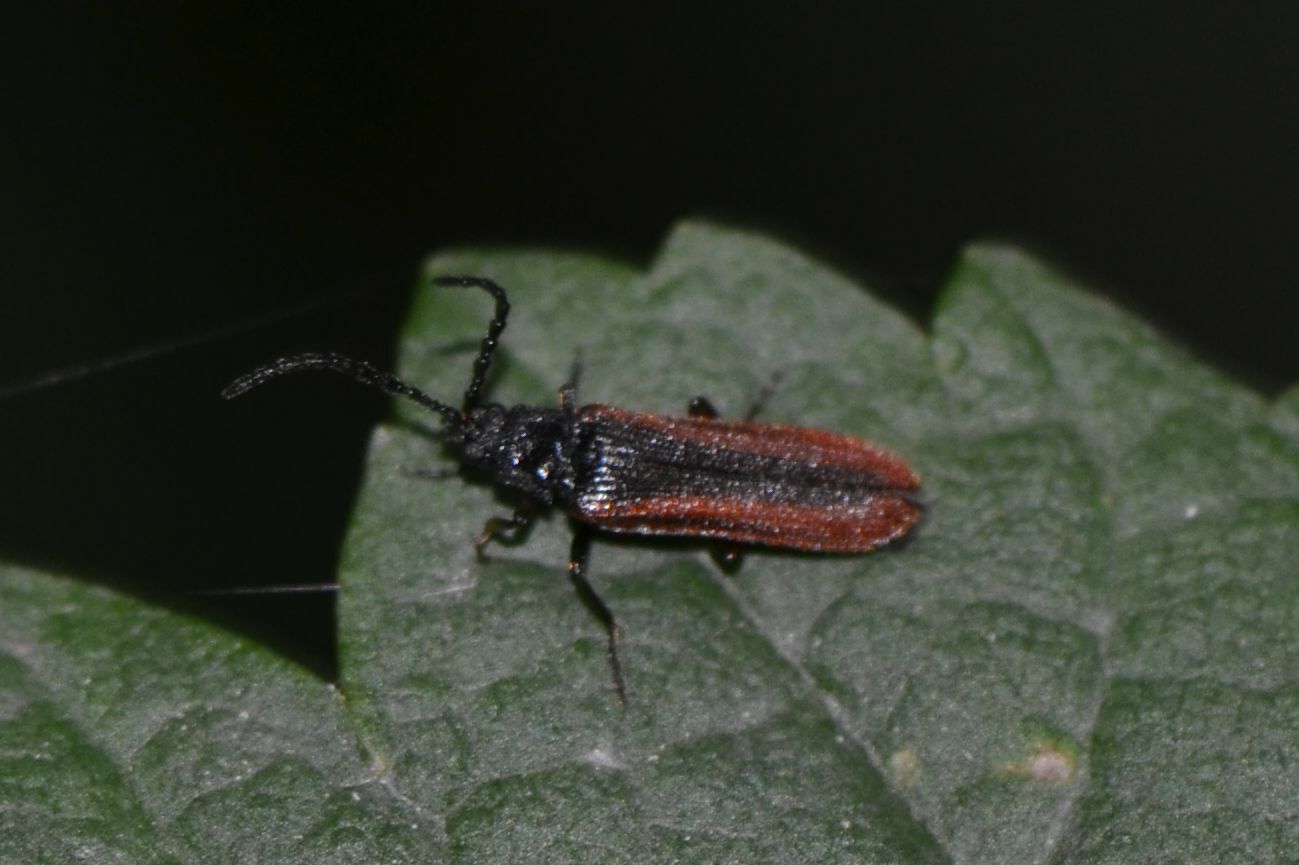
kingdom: Animalia
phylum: Arthropoda
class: Insecta
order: Coleoptera
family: Omalisidae
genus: Omalisus
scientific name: Omalisus fontisbellaquei
